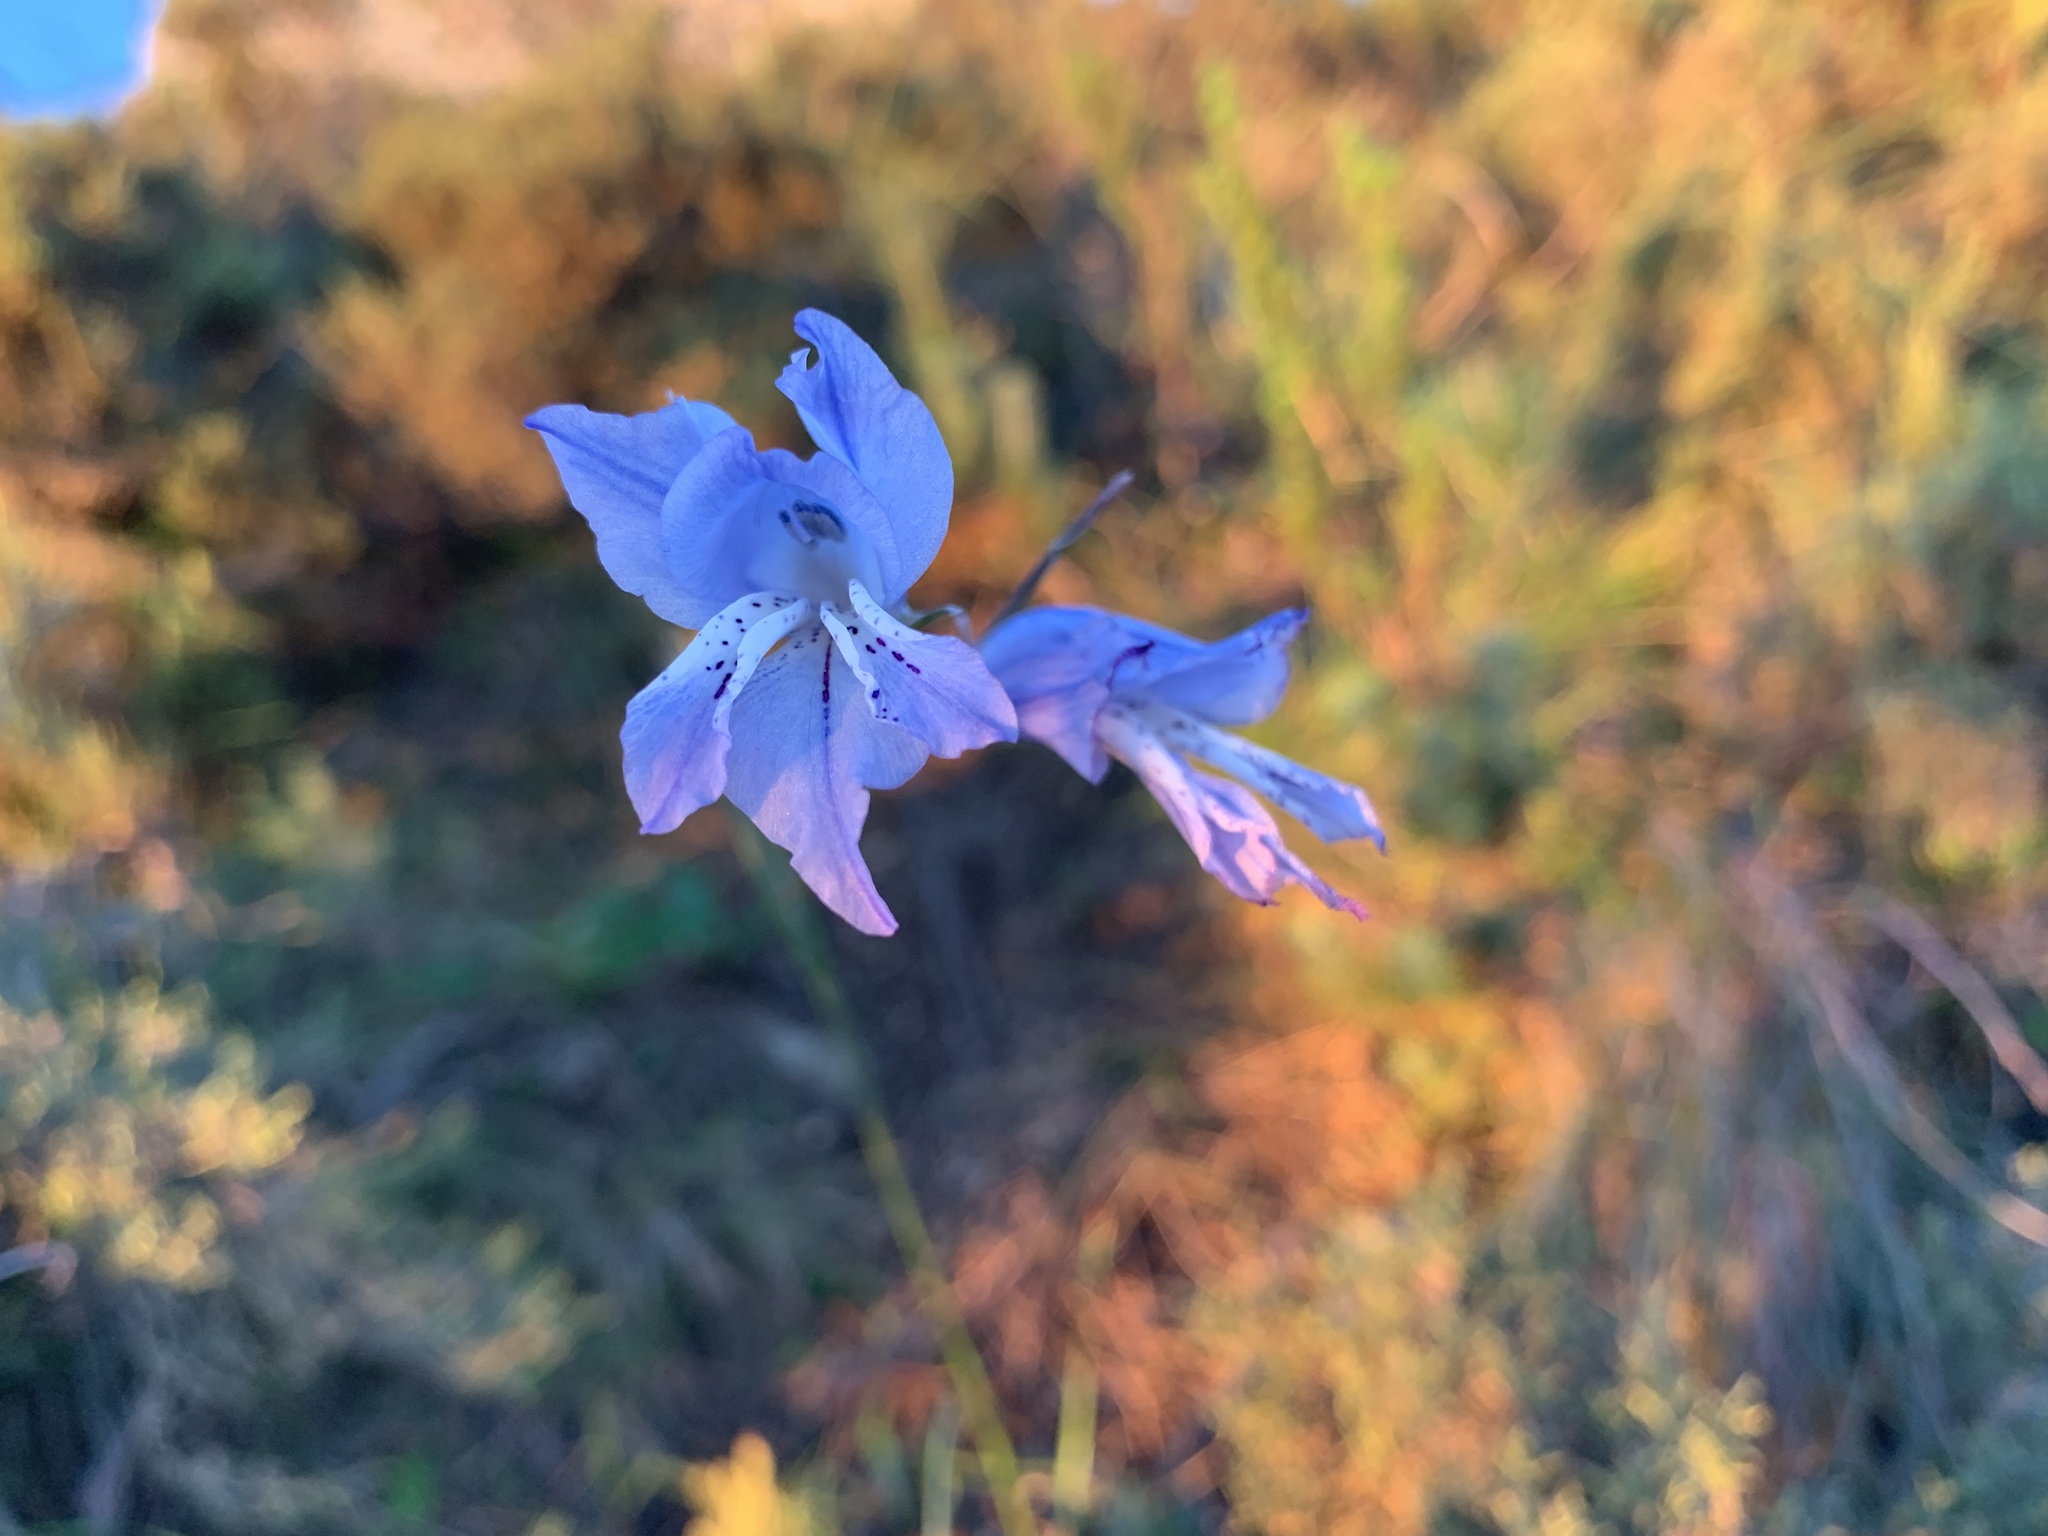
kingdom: Plantae
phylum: Tracheophyta
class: Liliopsida
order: Asparagales
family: Iridaceae
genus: Gladiolus
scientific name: Gladiolus gracilis
